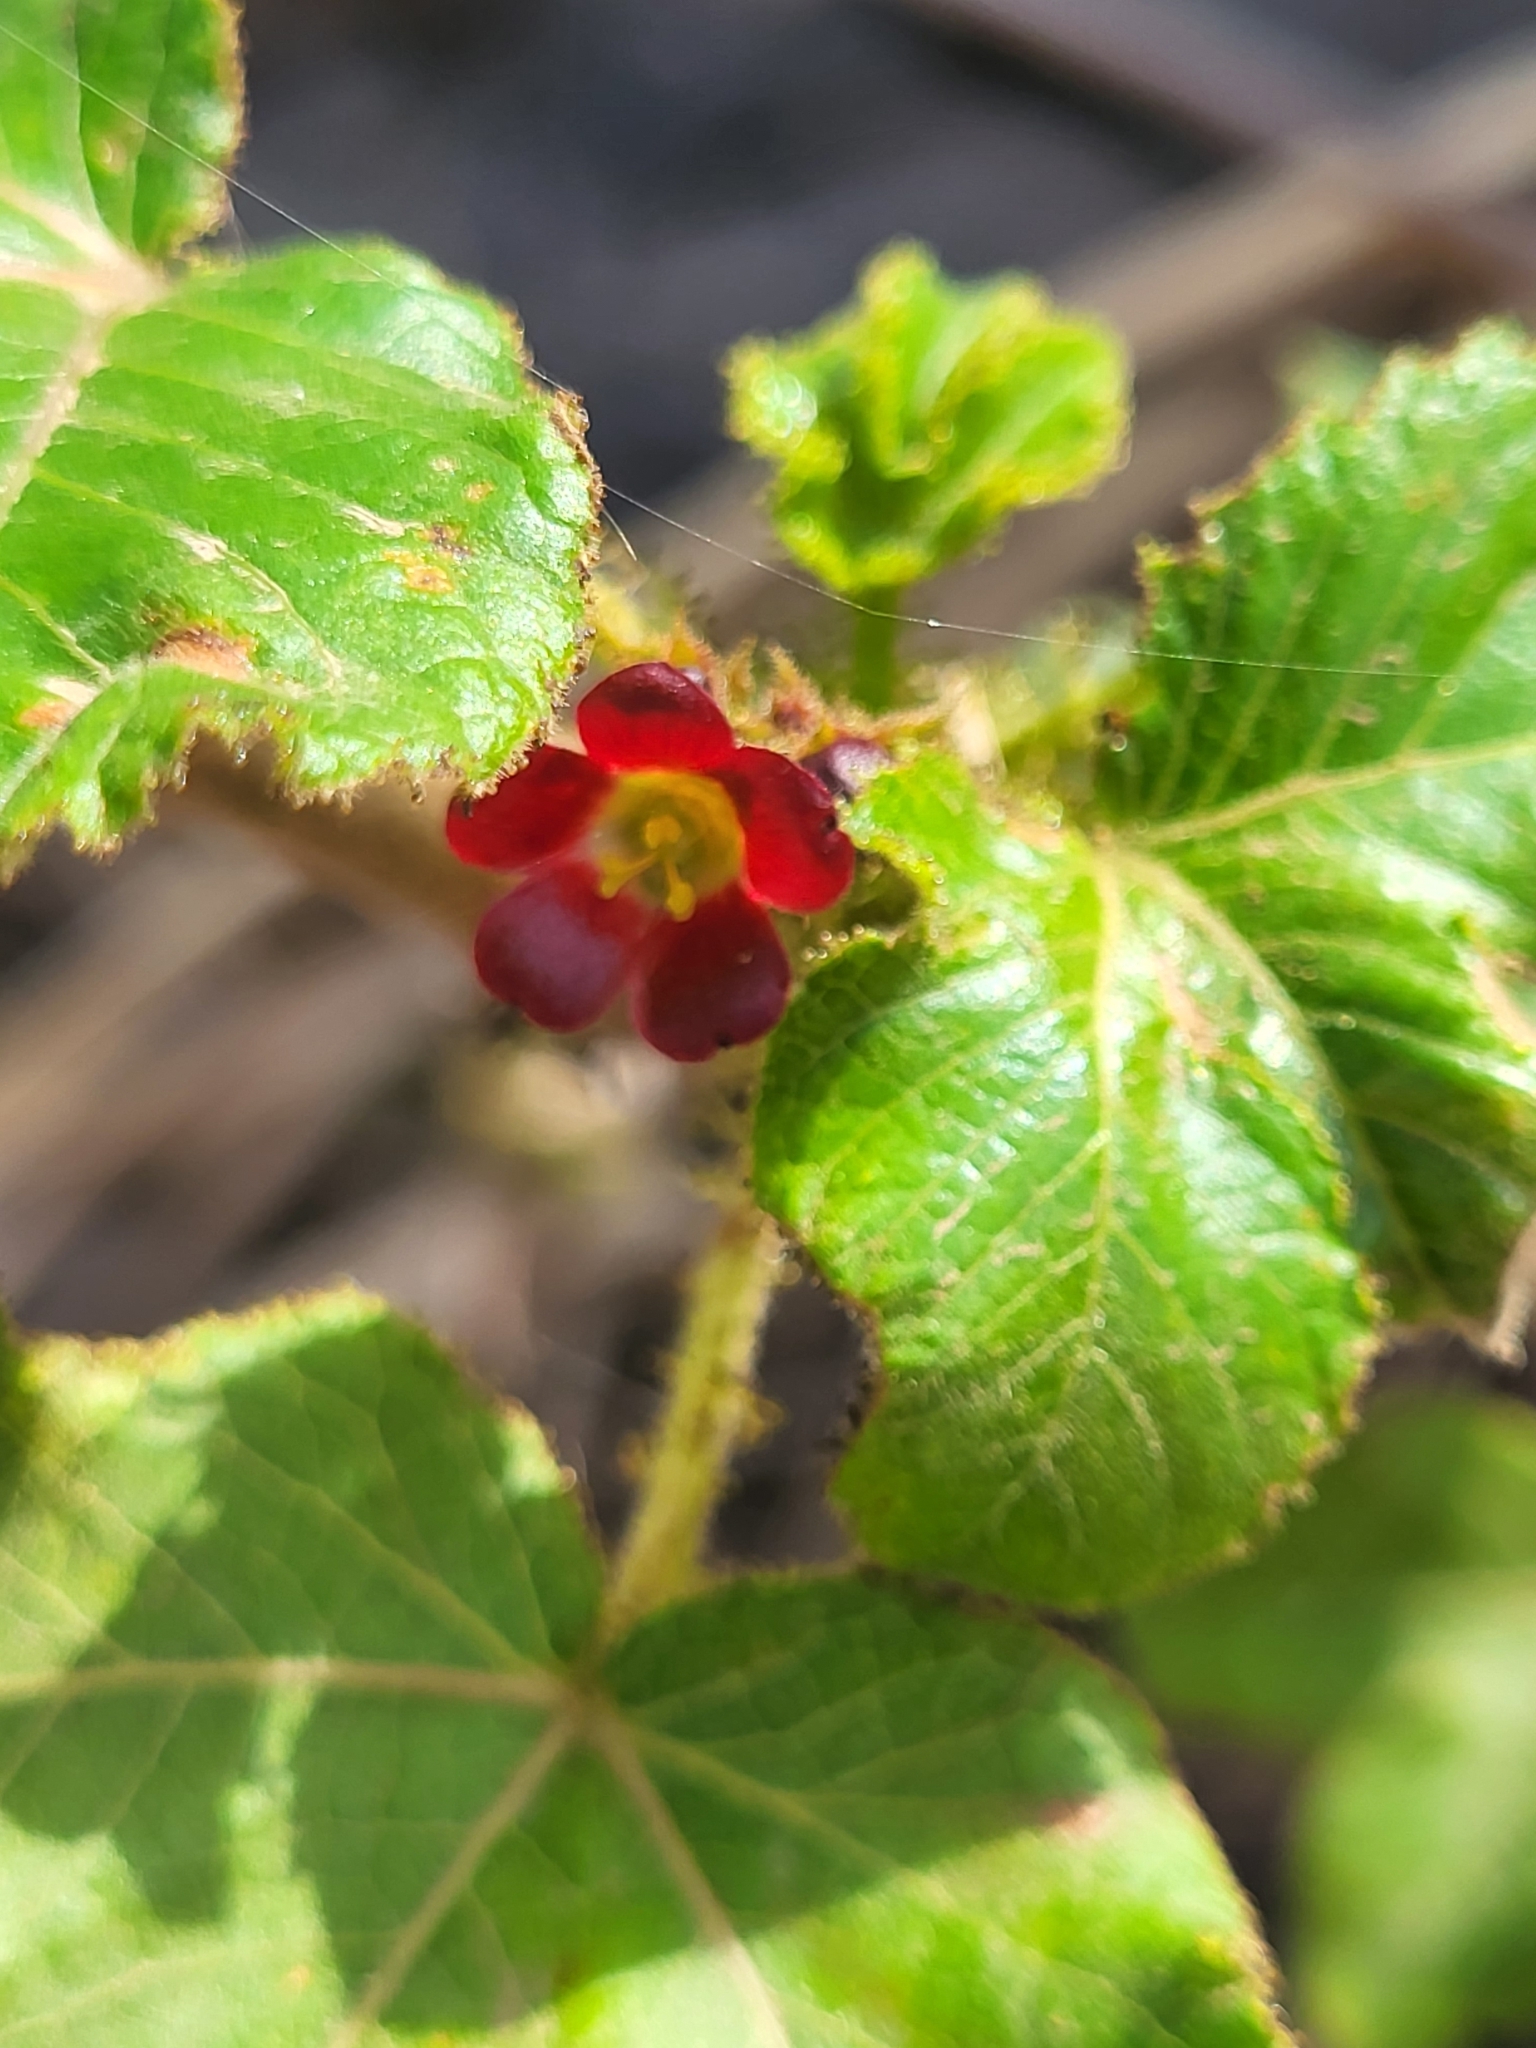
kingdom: Plantae
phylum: Tracheophyta
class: Magnoliopsida
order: Malpighiales
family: Euphorbiaceae
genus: Jatropha
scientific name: Jatropha gossypiifolia
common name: Bellyache bush
